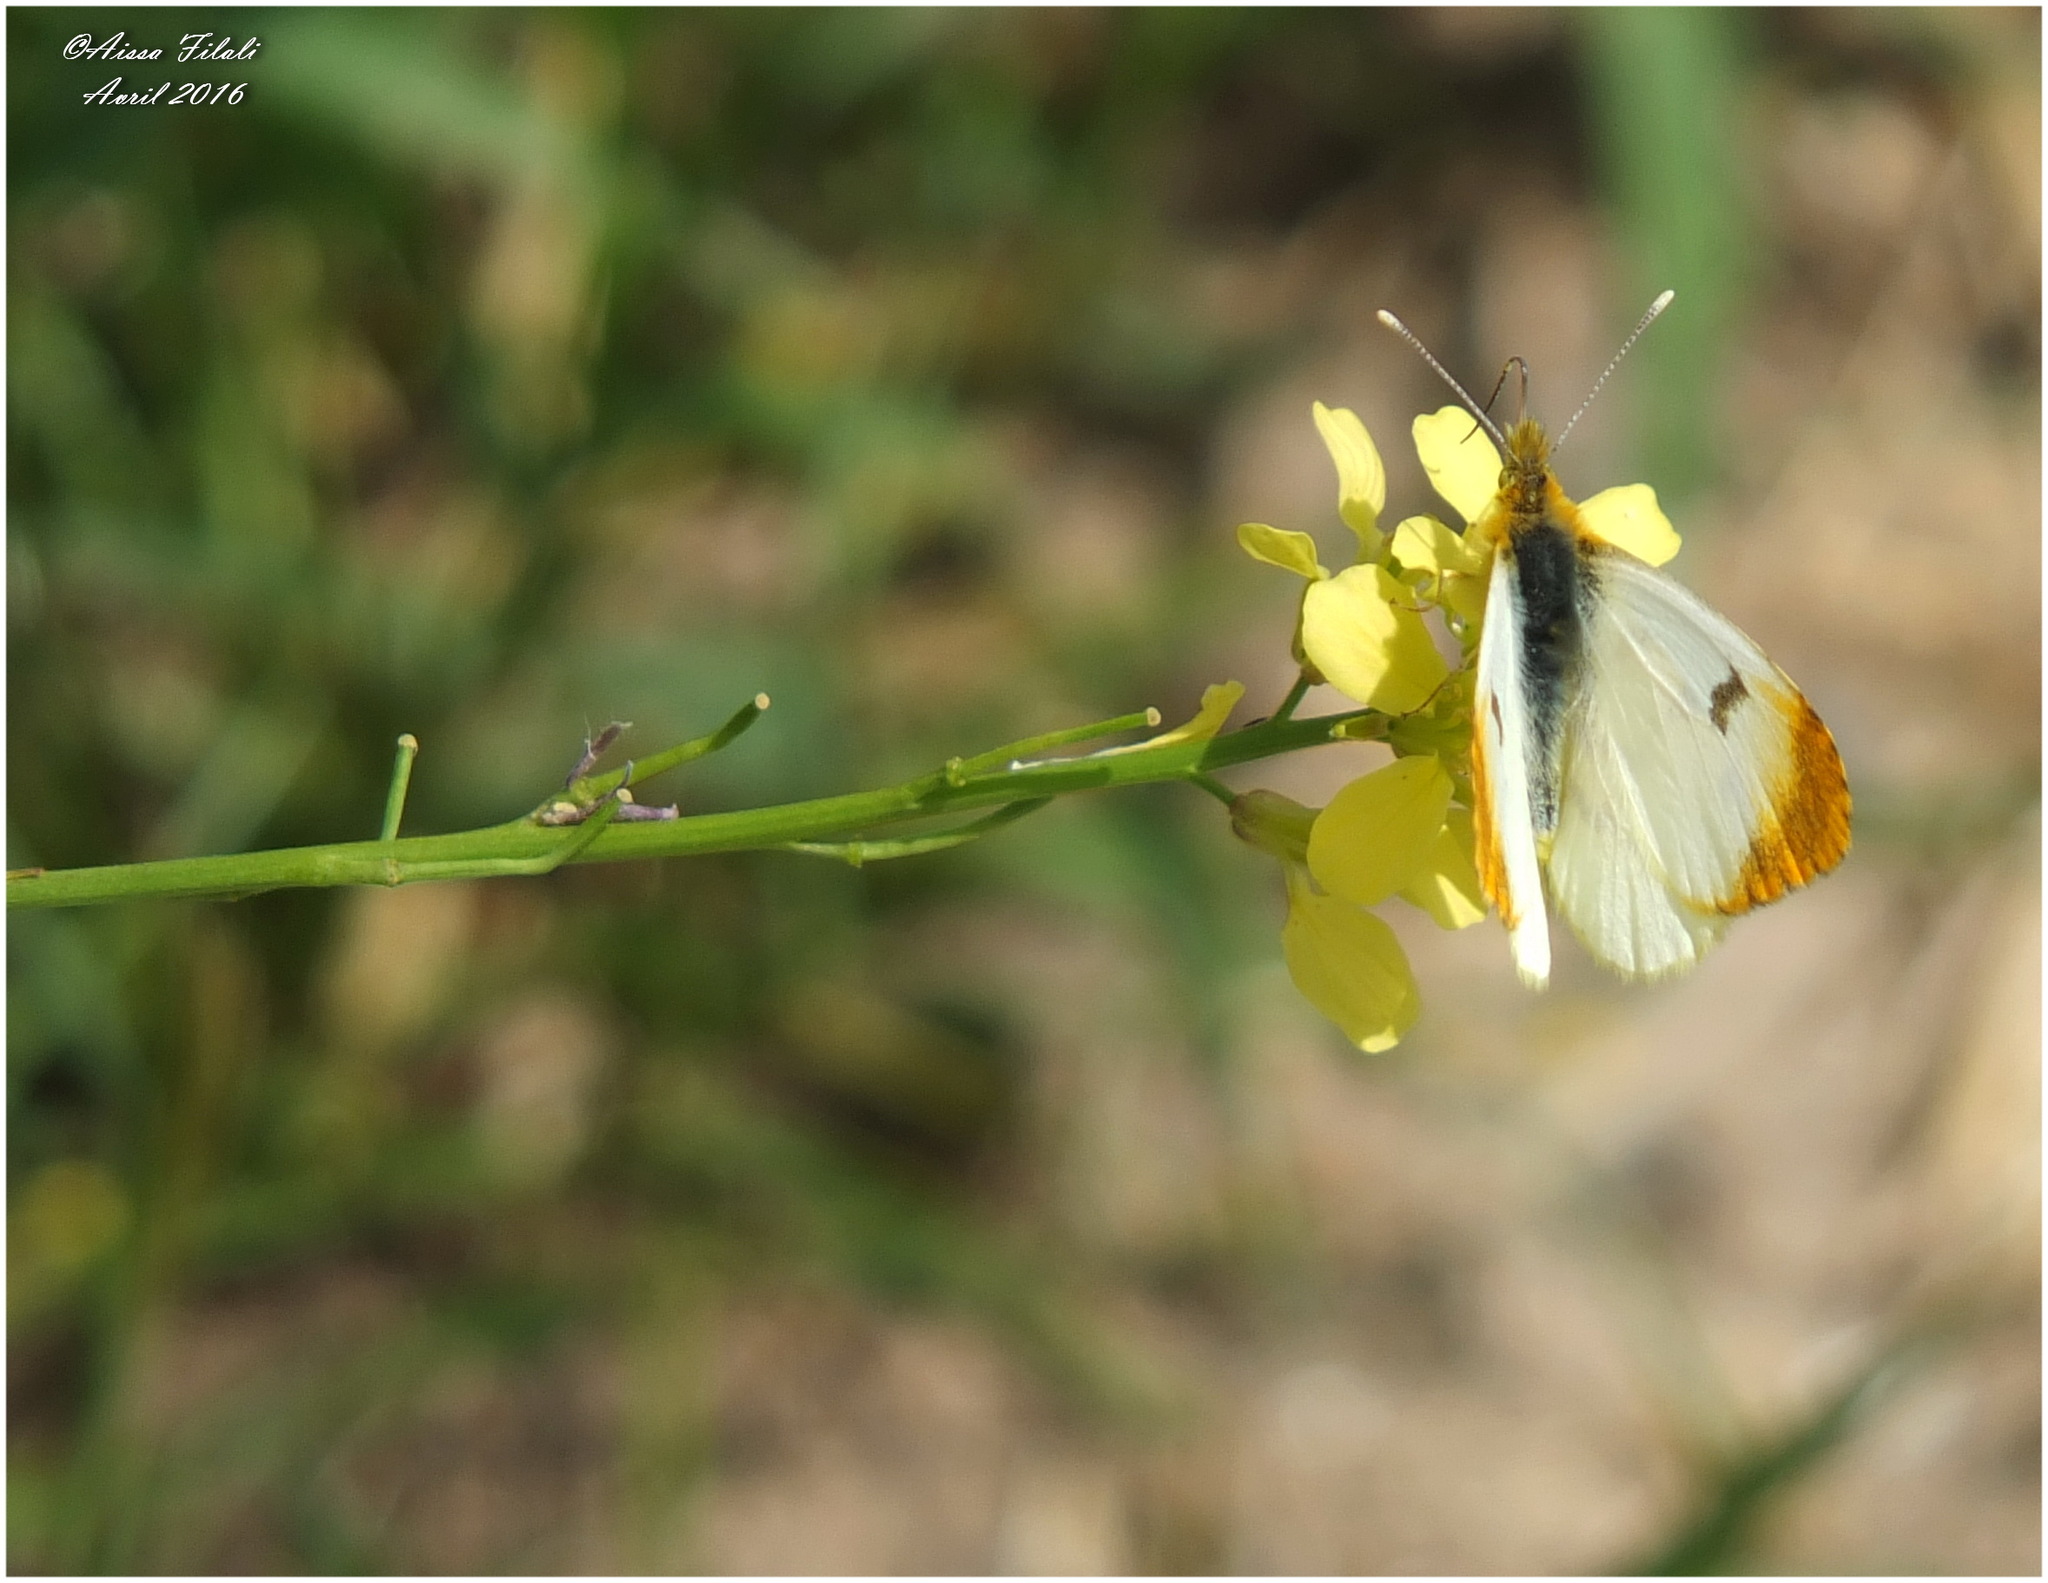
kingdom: Animalia
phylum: Arthropoda
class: Insecta
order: Lepidoptera
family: Pieridae
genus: Anthocharis
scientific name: Anthocharis belia
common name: Moroccan orange tip
